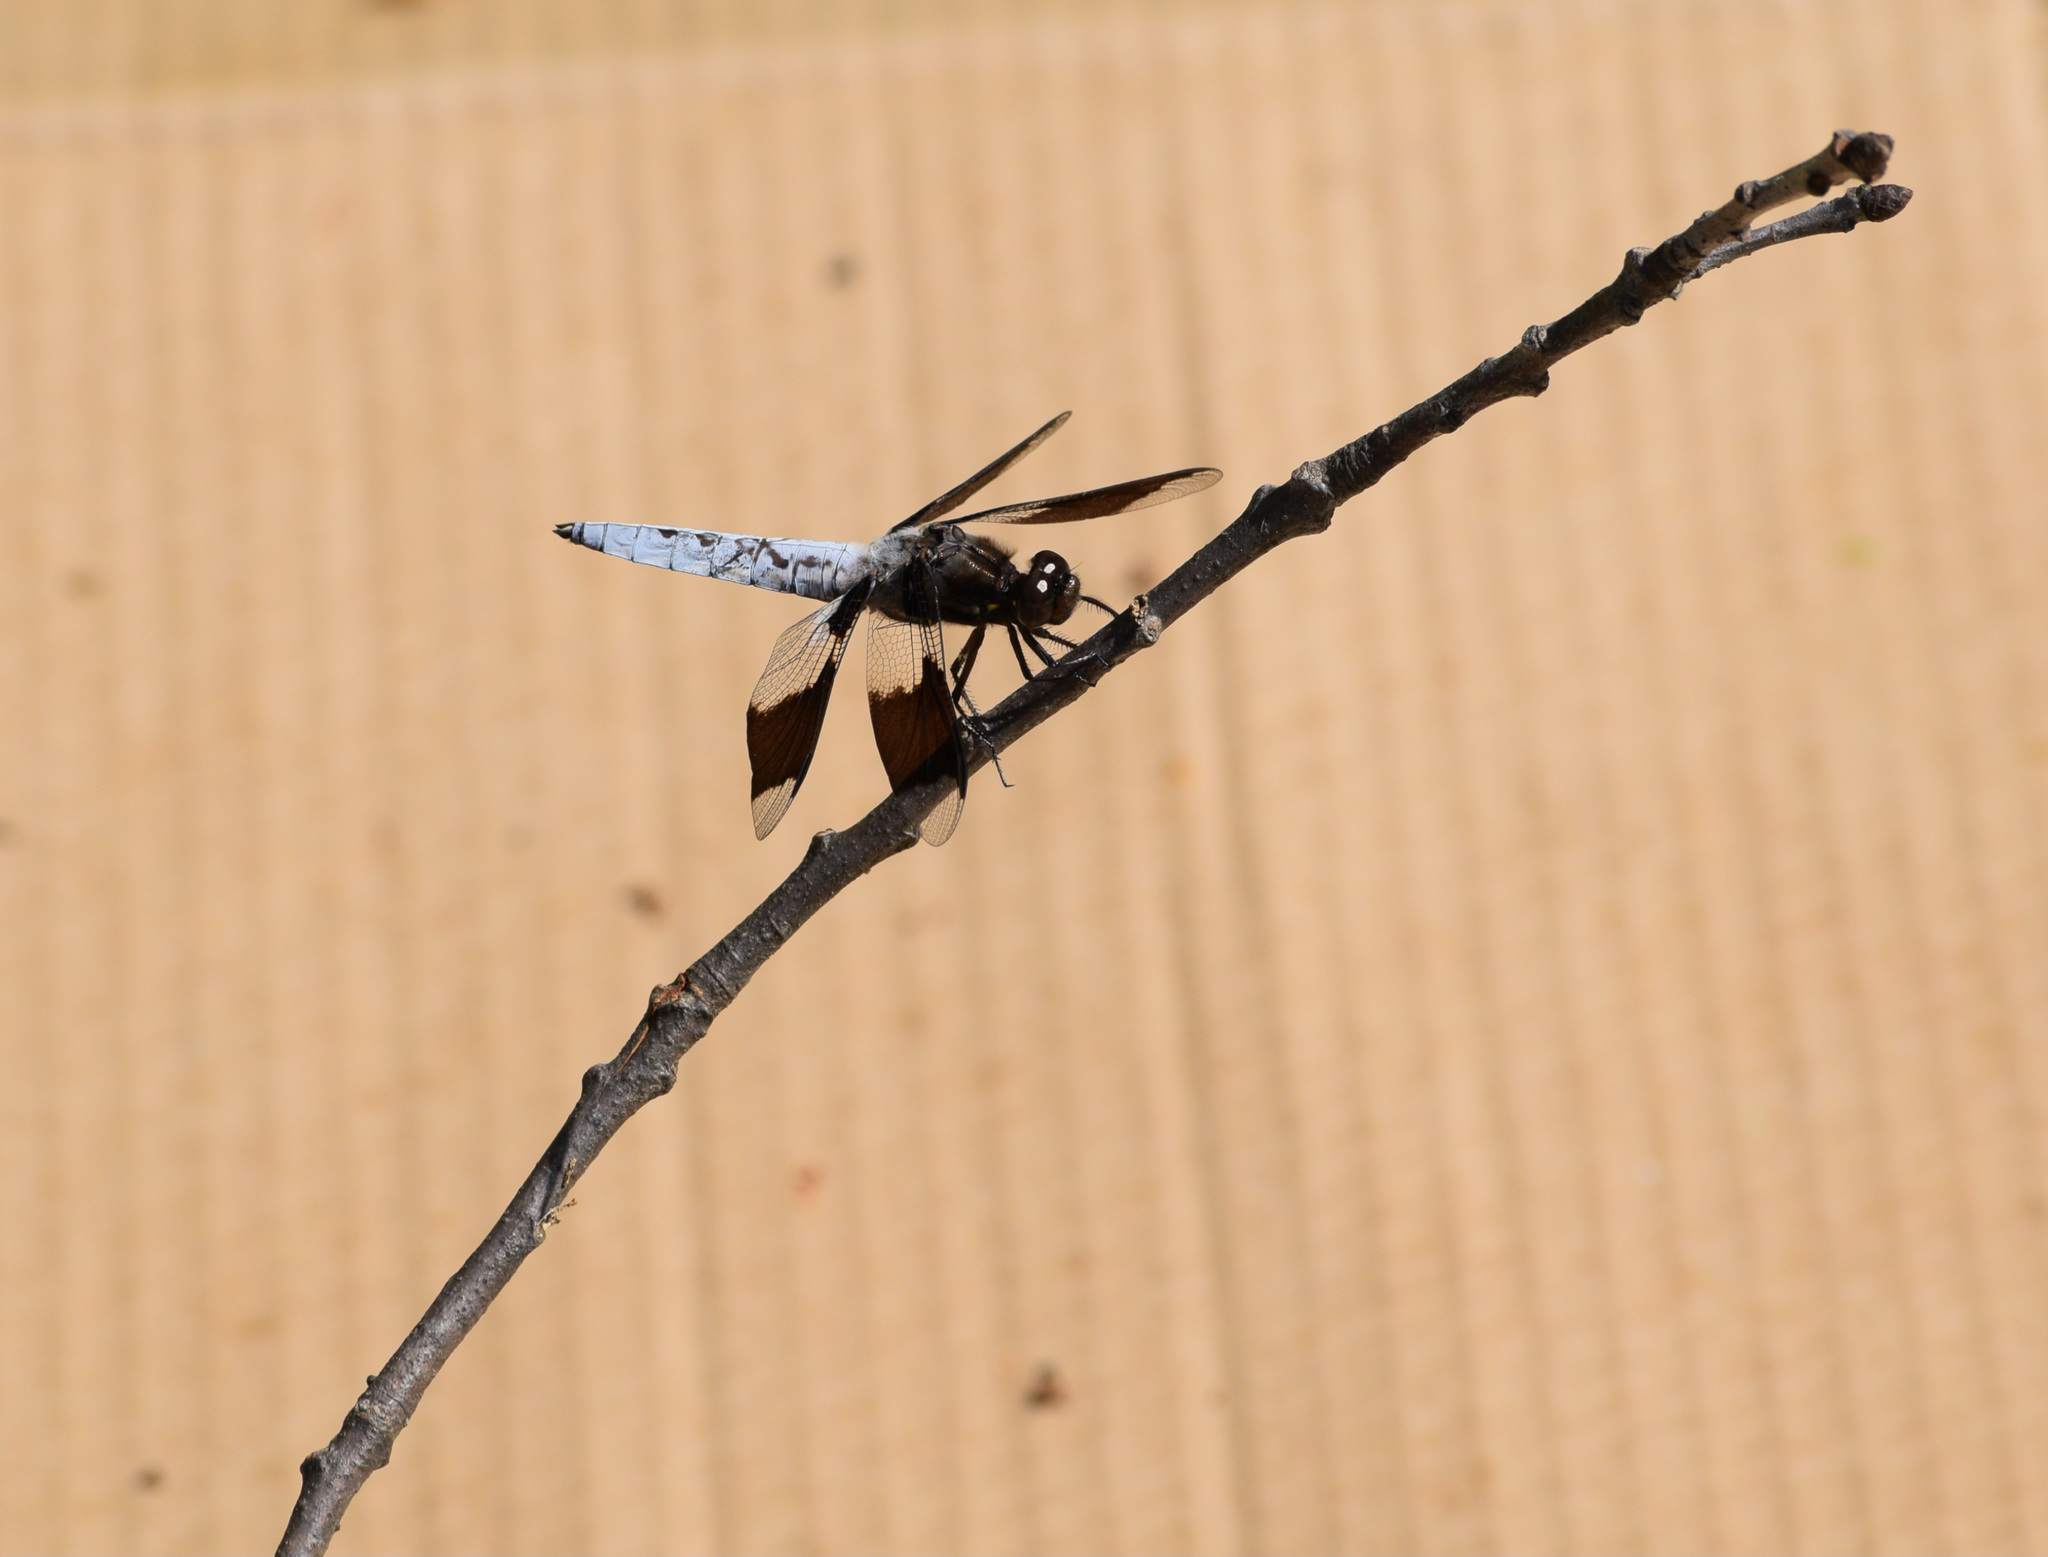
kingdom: Animalia
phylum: Arthropoda
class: Insecta
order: Odonata
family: Libellulidae
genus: Plathemis
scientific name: Plathemis lydia
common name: Common whitetail
